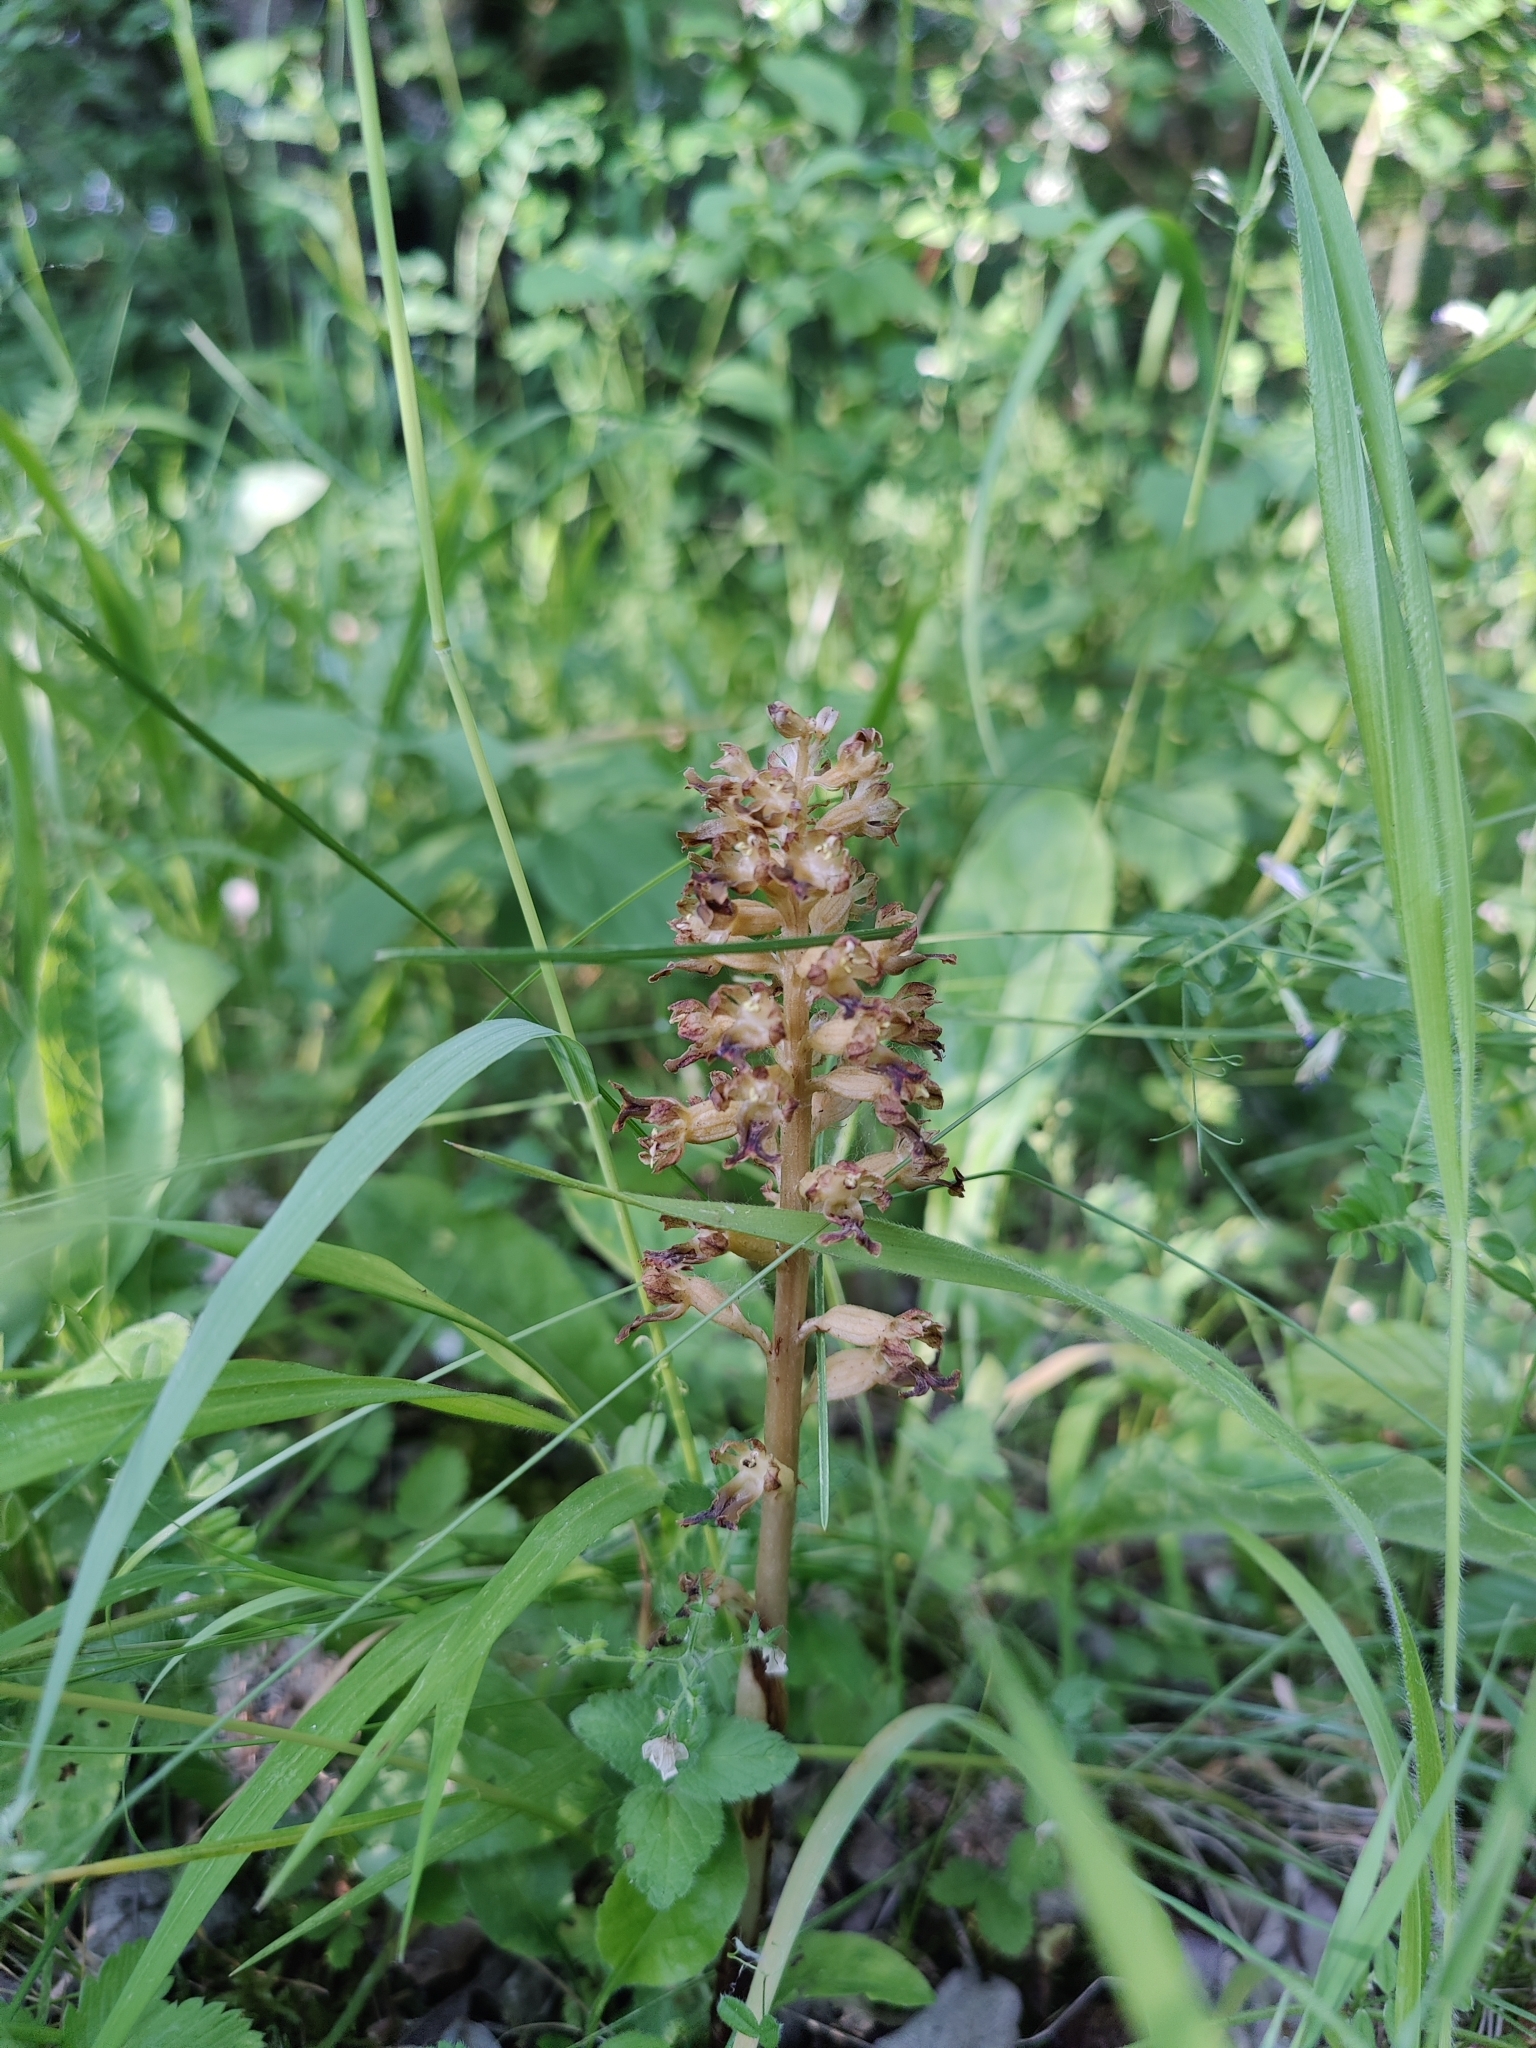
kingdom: Plantae
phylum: Tracheophyta
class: Liliopsida
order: Asparagales
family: Orchidaceae
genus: Neottia
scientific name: Neottia nidus-avis
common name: Bird's-nest orchid
